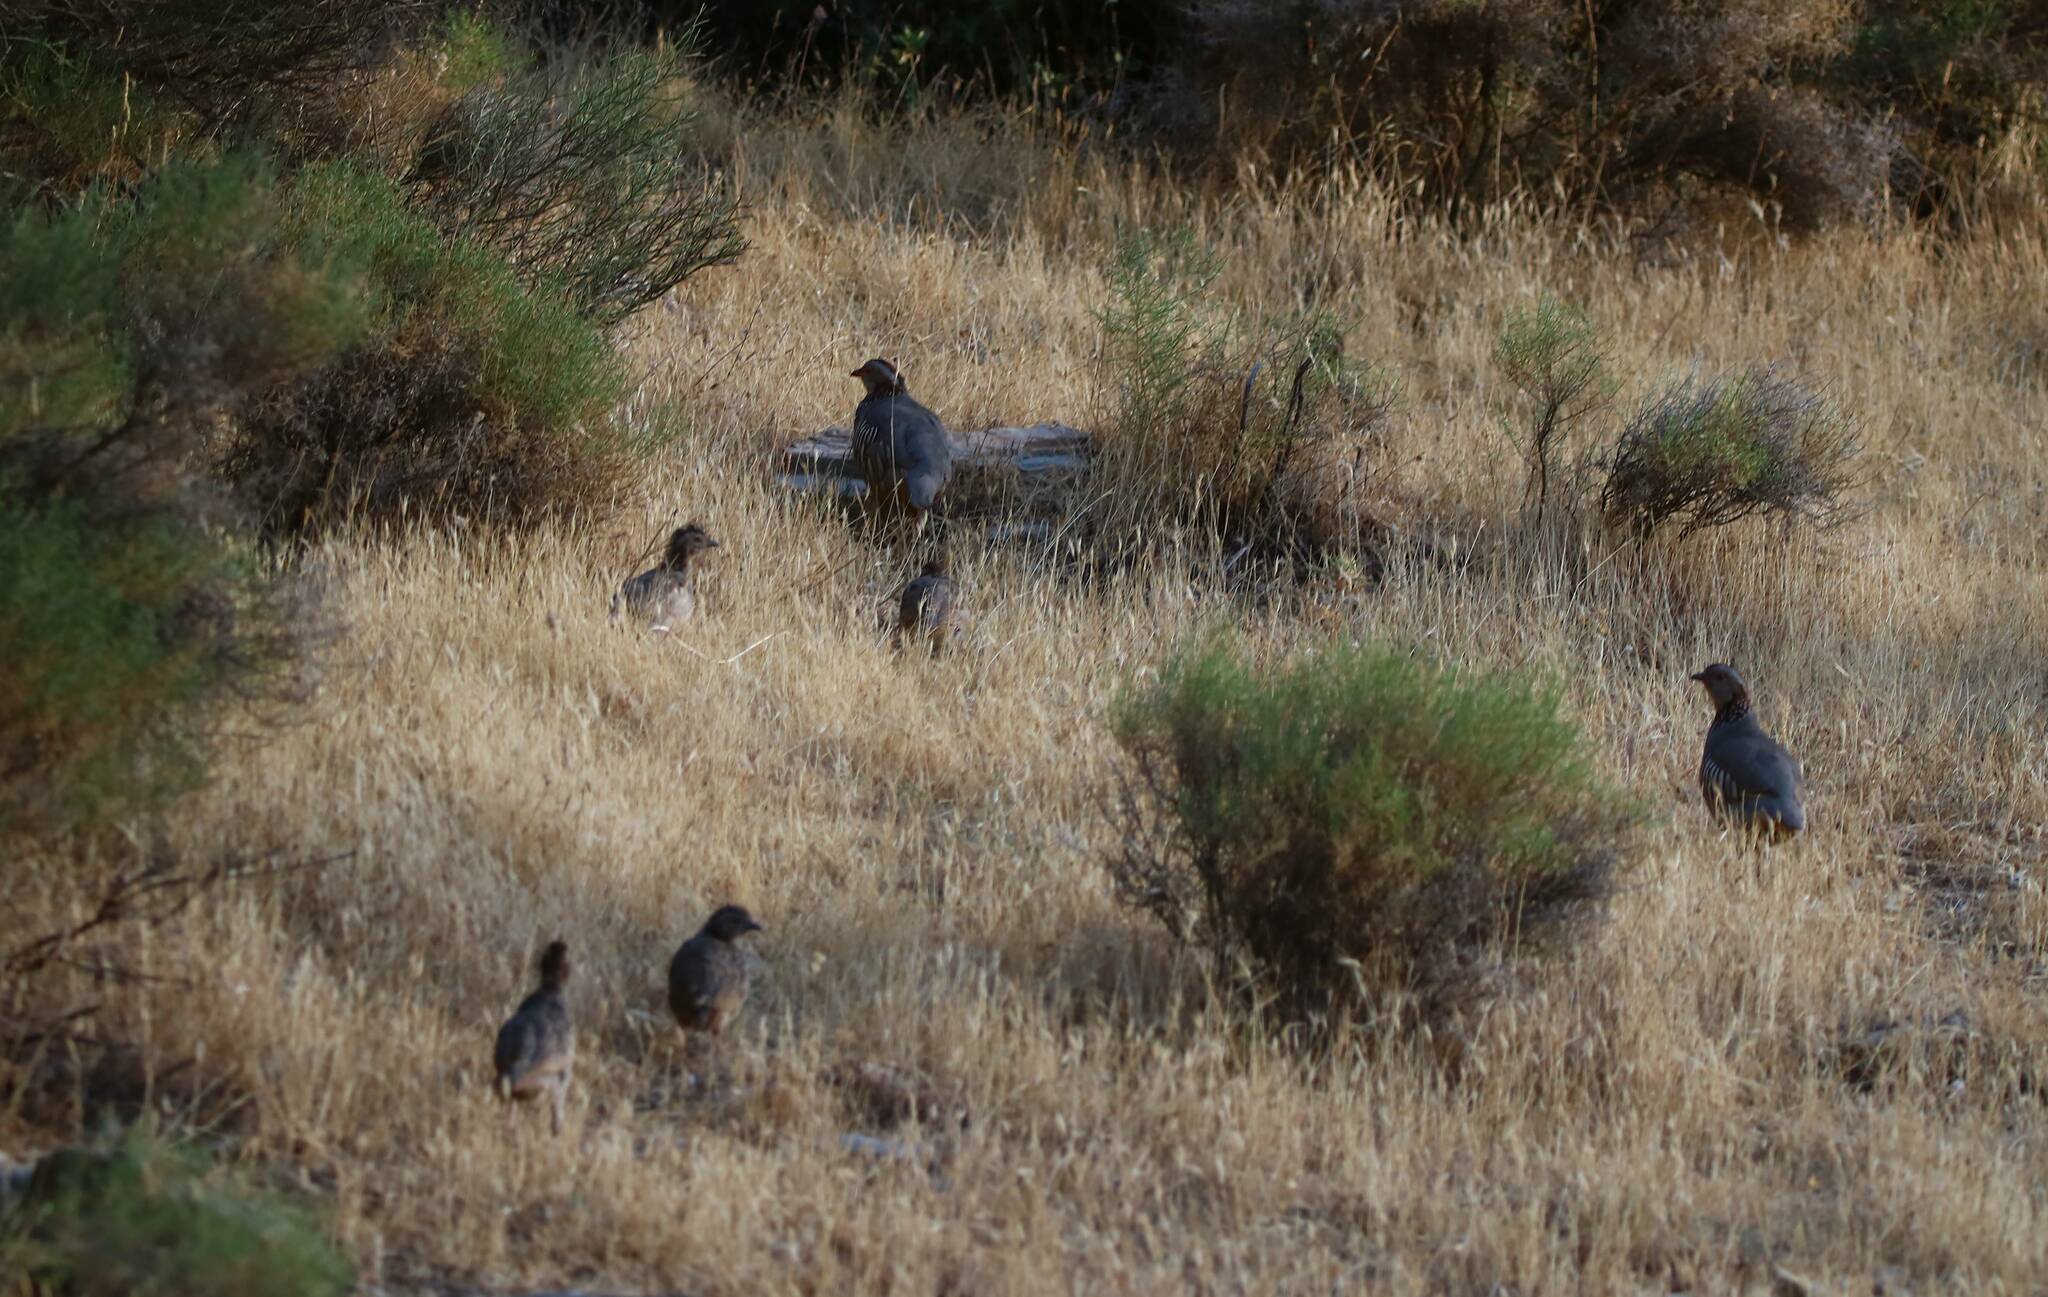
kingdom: Animalia
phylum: Chordata
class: Aves
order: Galliformes
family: Phasianidae
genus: Alectoris
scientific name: Alectoris barbara
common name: Barbary partridge
